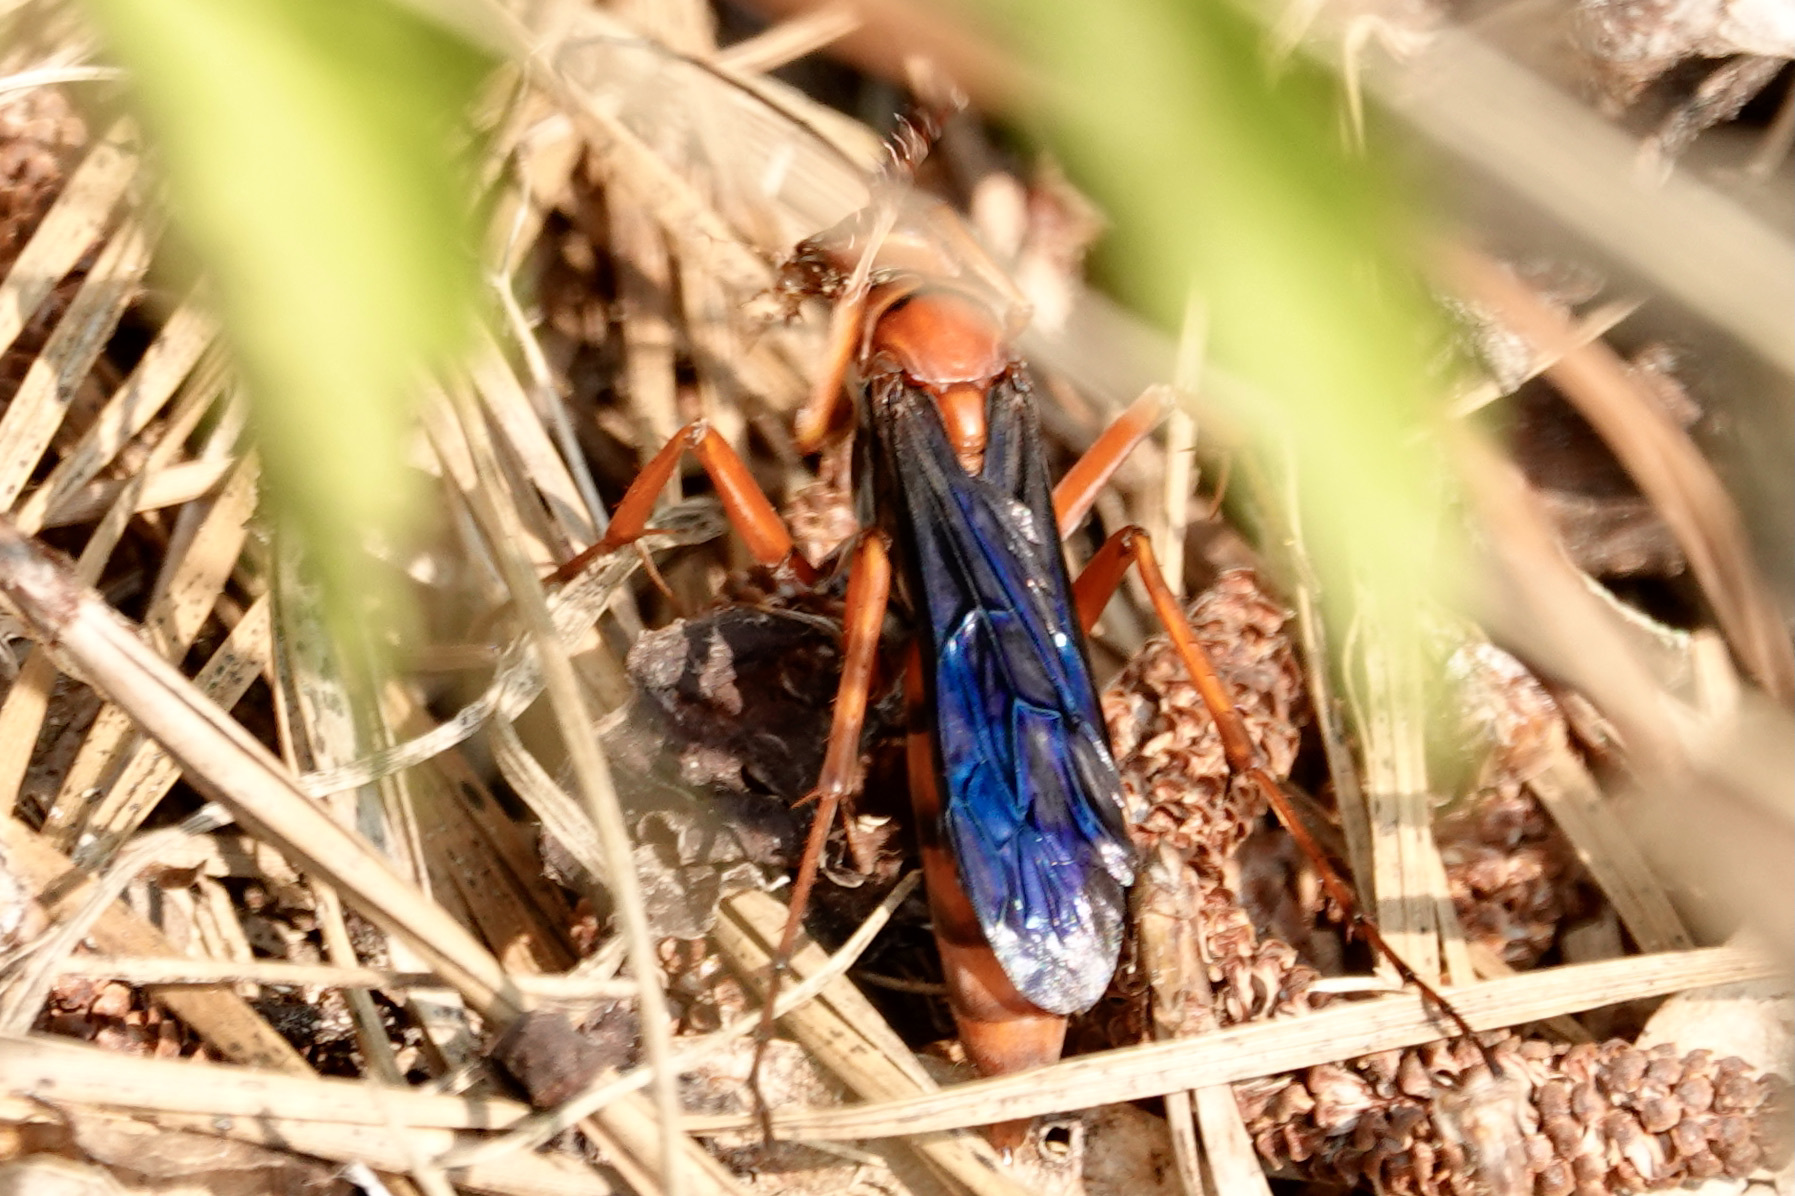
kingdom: Animalia
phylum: Arthropoda
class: Insecta
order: Hymenoptera
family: Pompilidae
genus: Tachypompilus
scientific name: Tachypompilus ferrugineus
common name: Rusty spider wasp
